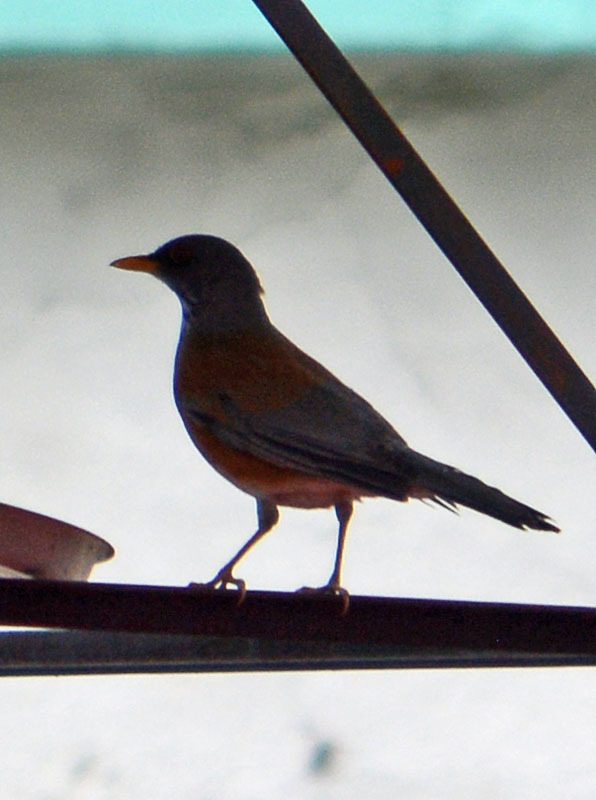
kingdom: Animalia
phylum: Chordata
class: Aves
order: Passeriformes
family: Turdidae
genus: Turdus
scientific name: Turdus rufopalliatus
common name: Rufous-backed robin
